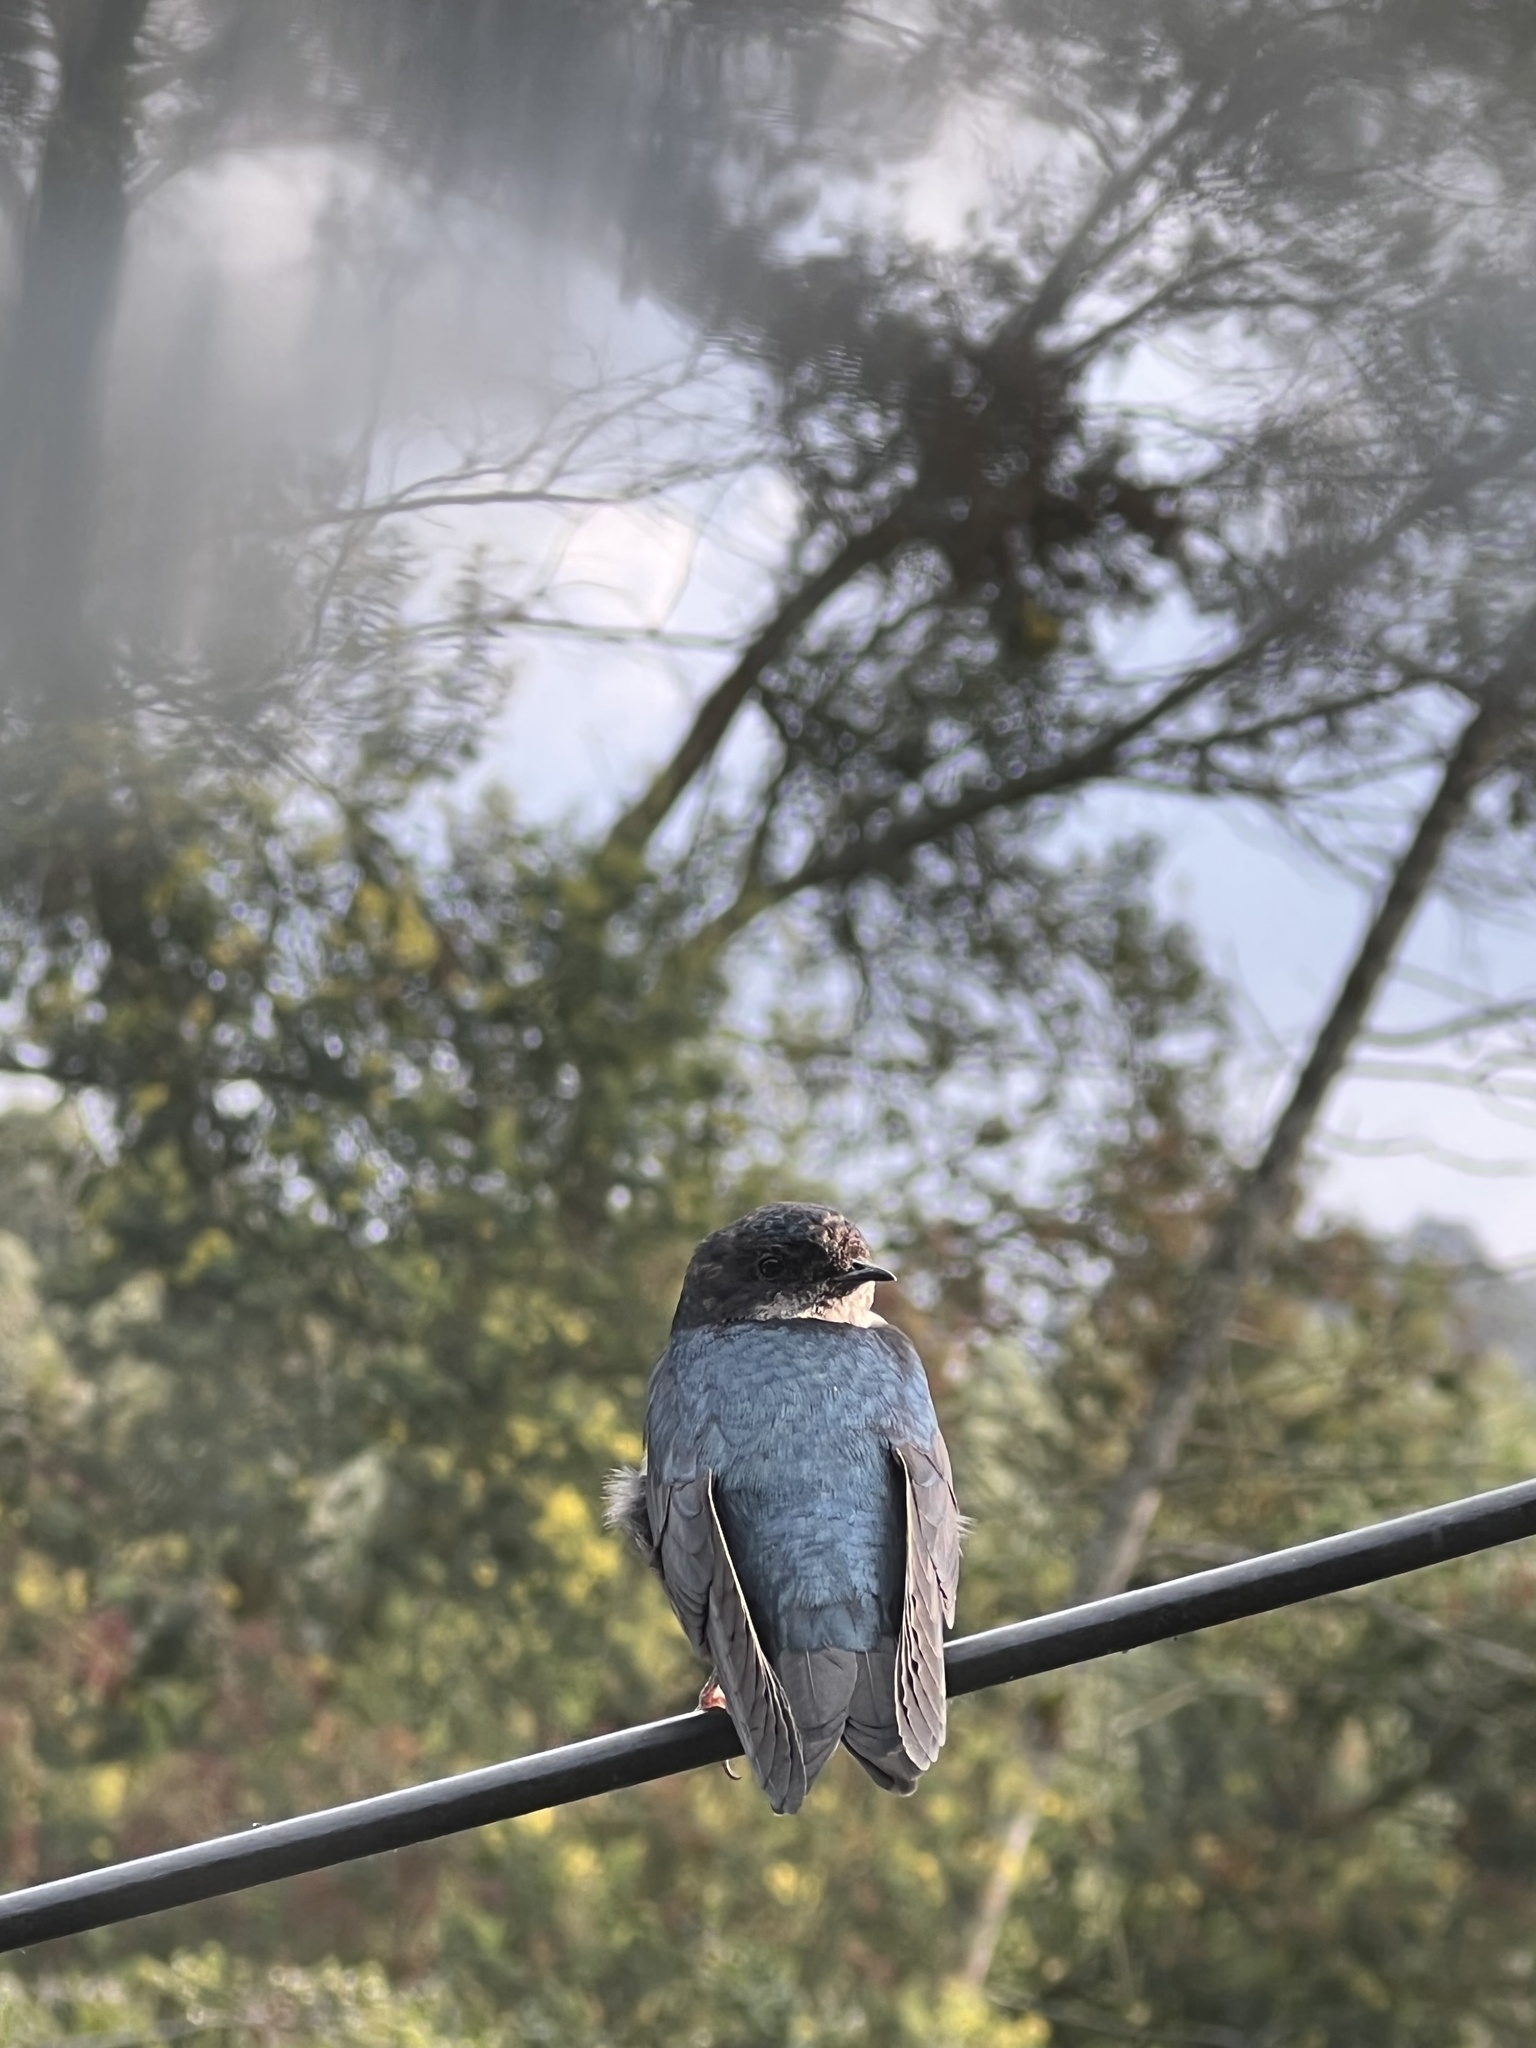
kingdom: Animalia
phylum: Chordata
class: Aves
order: Passeriformes
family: Hirundinidae
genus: Notiochelidon
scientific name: Notiochelidon murina
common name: Brown-bellied swallow
